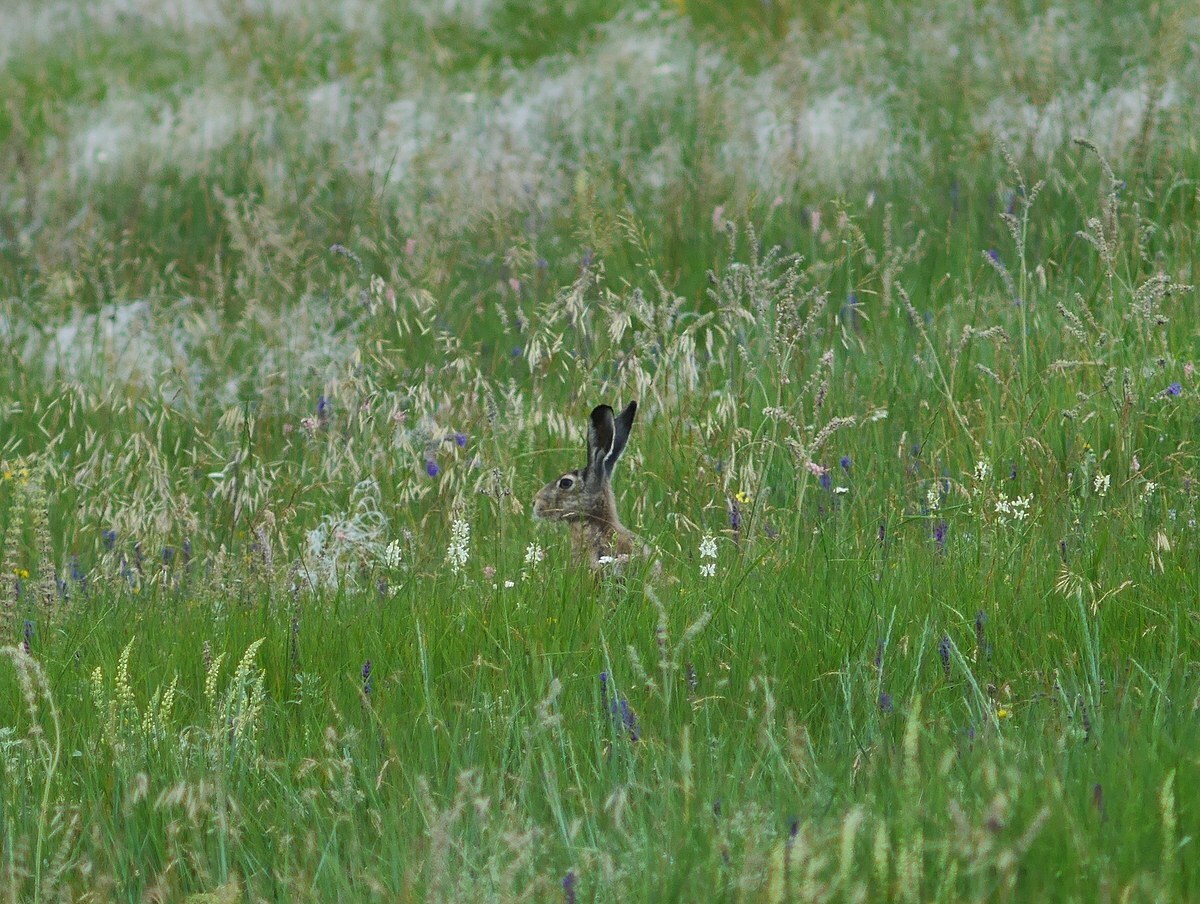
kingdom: Animalia
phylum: Chordata
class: Mammalia
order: Lagomorpha
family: Leporidae
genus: Lepus
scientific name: Lepus europaeus
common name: European hare
